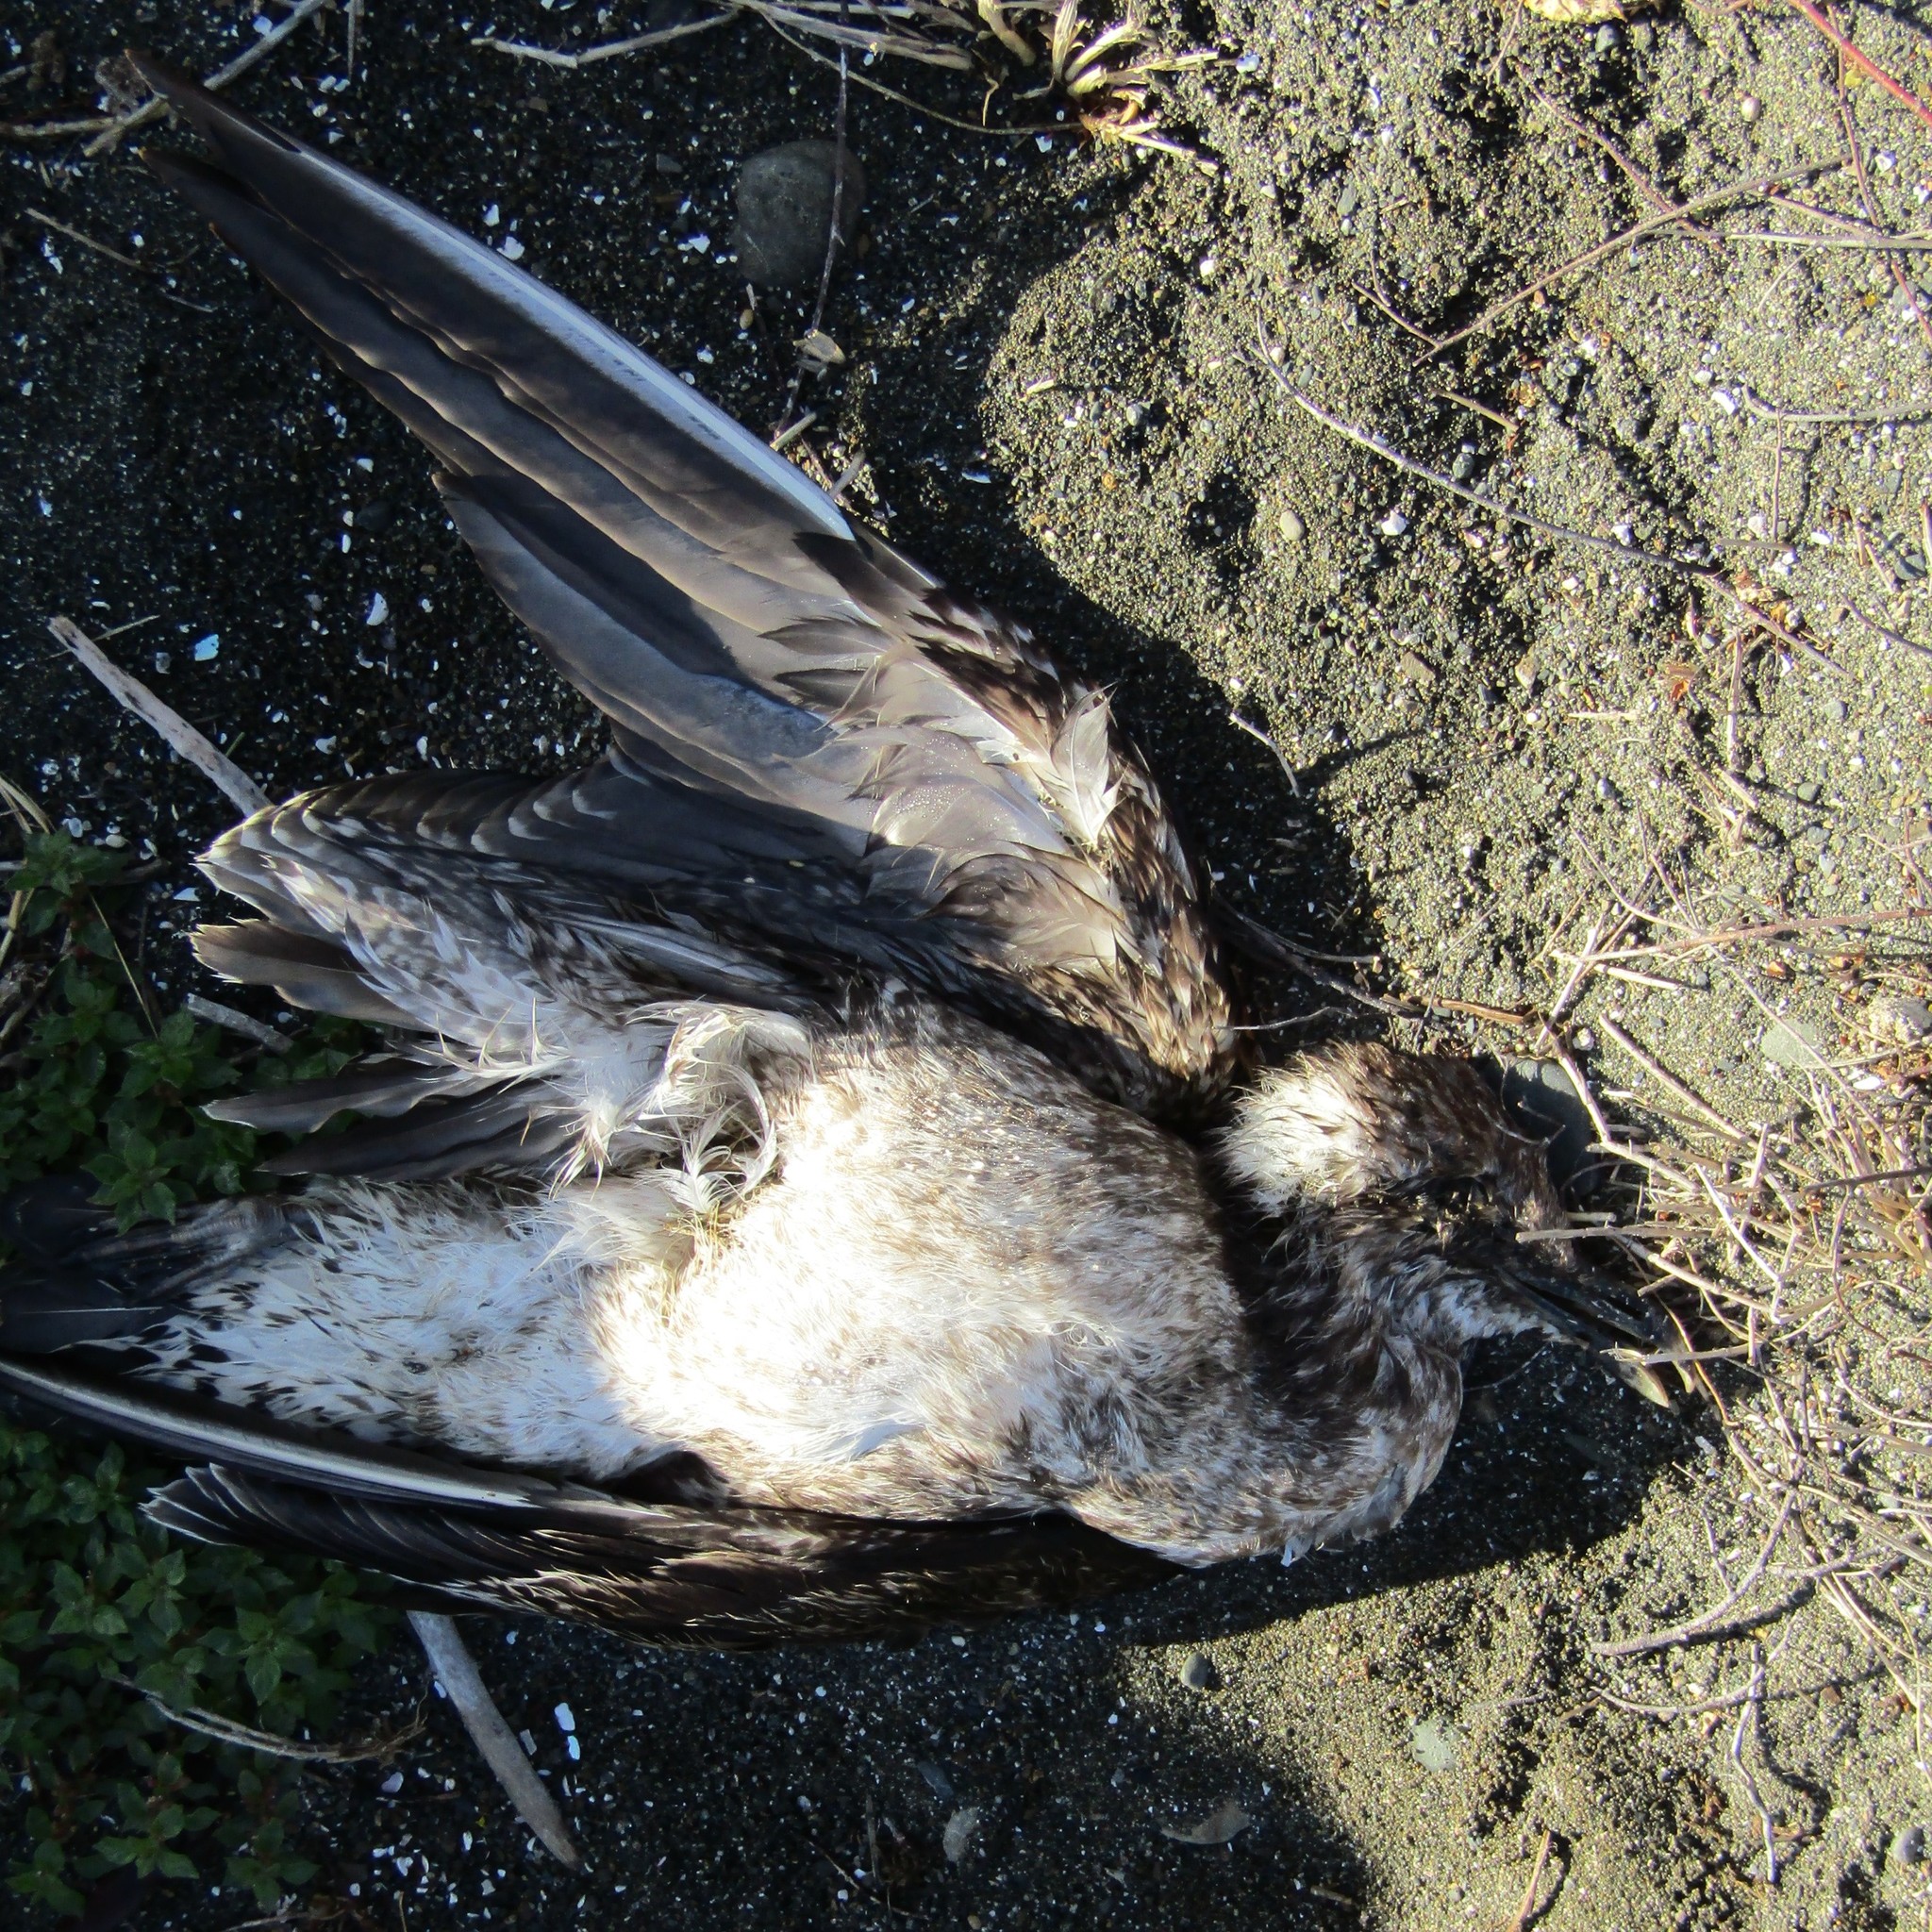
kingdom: Animalia
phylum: Chordata
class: Aves
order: Charadriiformes
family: Laridae
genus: Larus
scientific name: Larus dominicanus
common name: Kelp gull
